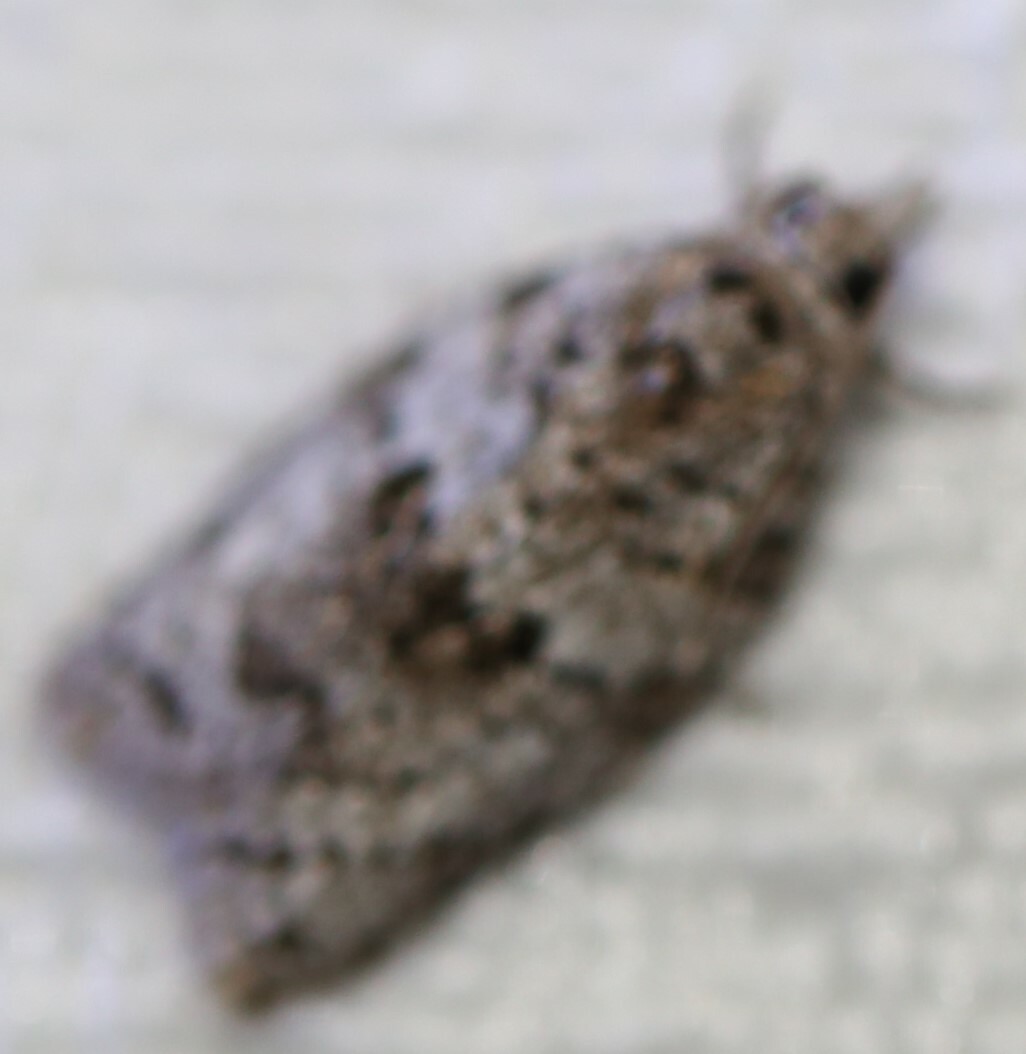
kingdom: Animalia
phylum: Arthropoda
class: Insecta
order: Lepidoptera
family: Tortricidae
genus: Isotenes
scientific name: Isotenes miserana
